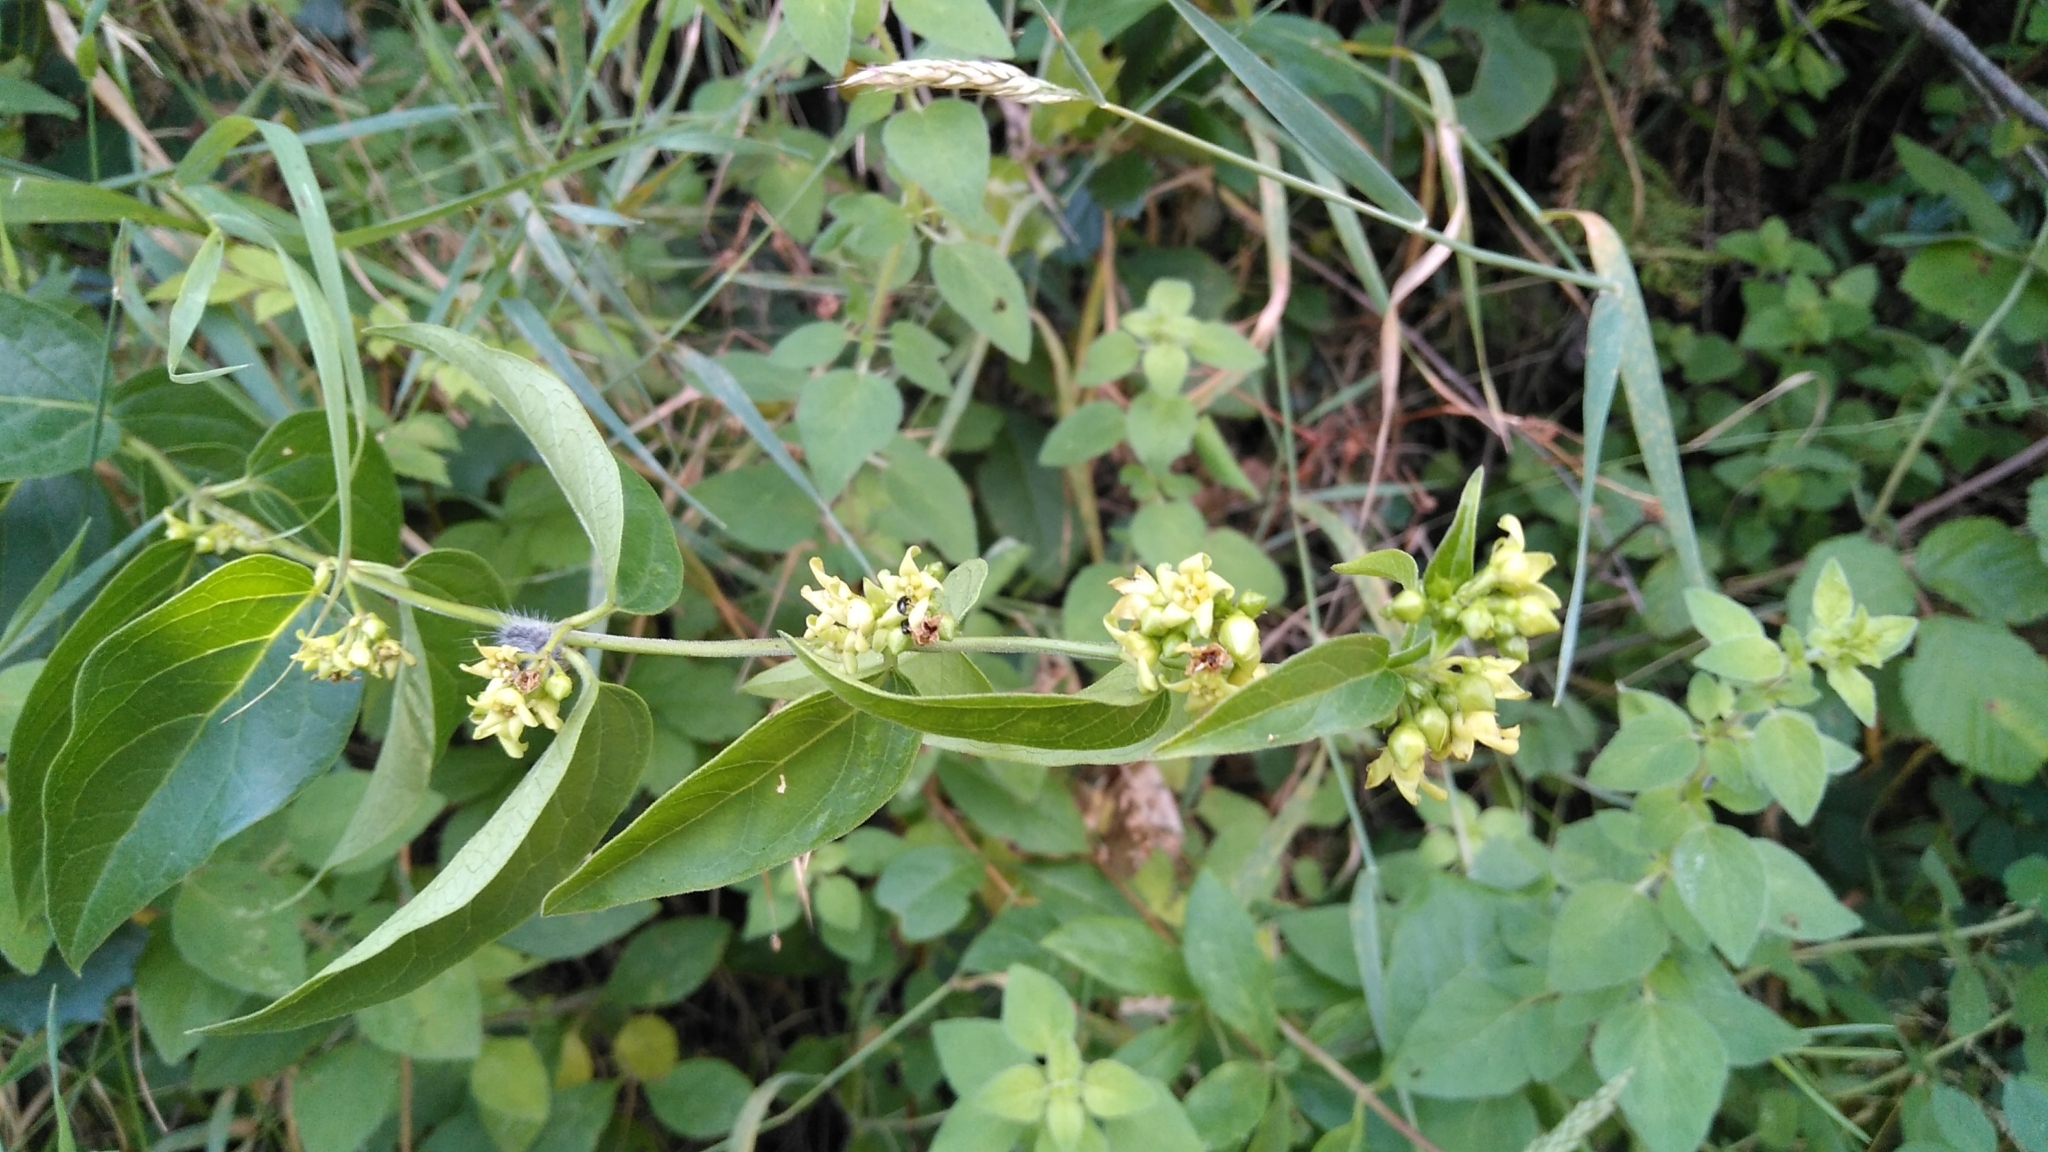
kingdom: Plantae
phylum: Tracheophyta
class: Magnoliopsida
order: Gentianales
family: Apocynaceae
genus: Vincetoxicum
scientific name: Vincetoxicum hirundinaria
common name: White swallowwort
